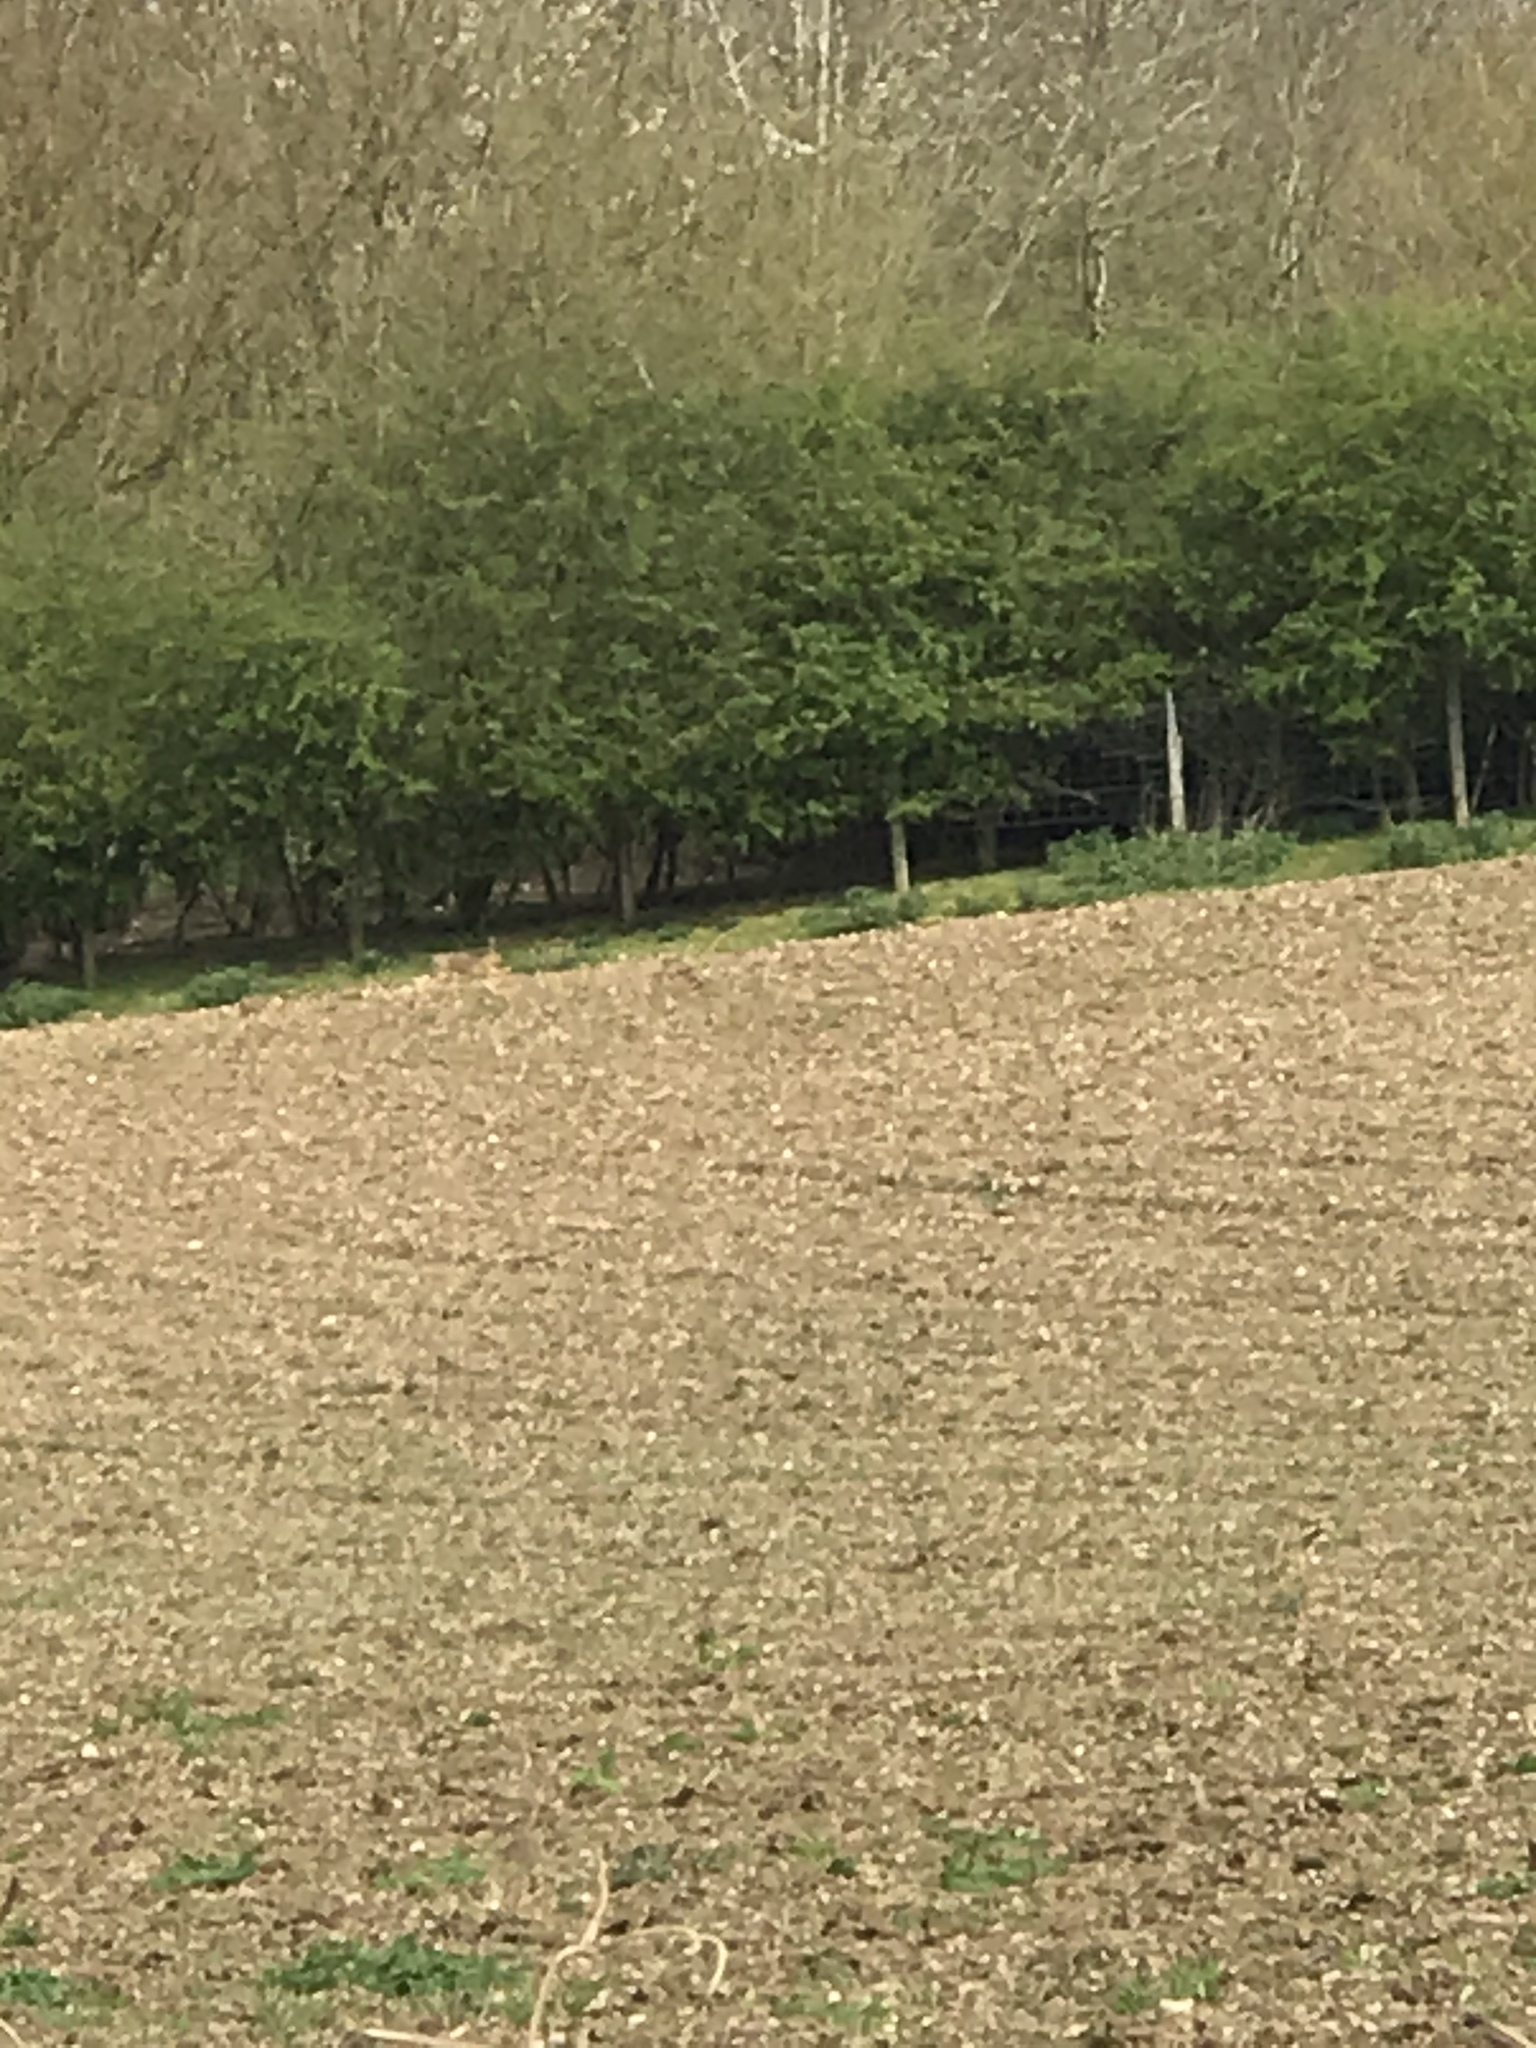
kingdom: Animalia
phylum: Chordata
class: Mammalia
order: Lagomorpha
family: Leporidae
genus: Lepus
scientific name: Lepus europaeus
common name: European hare
